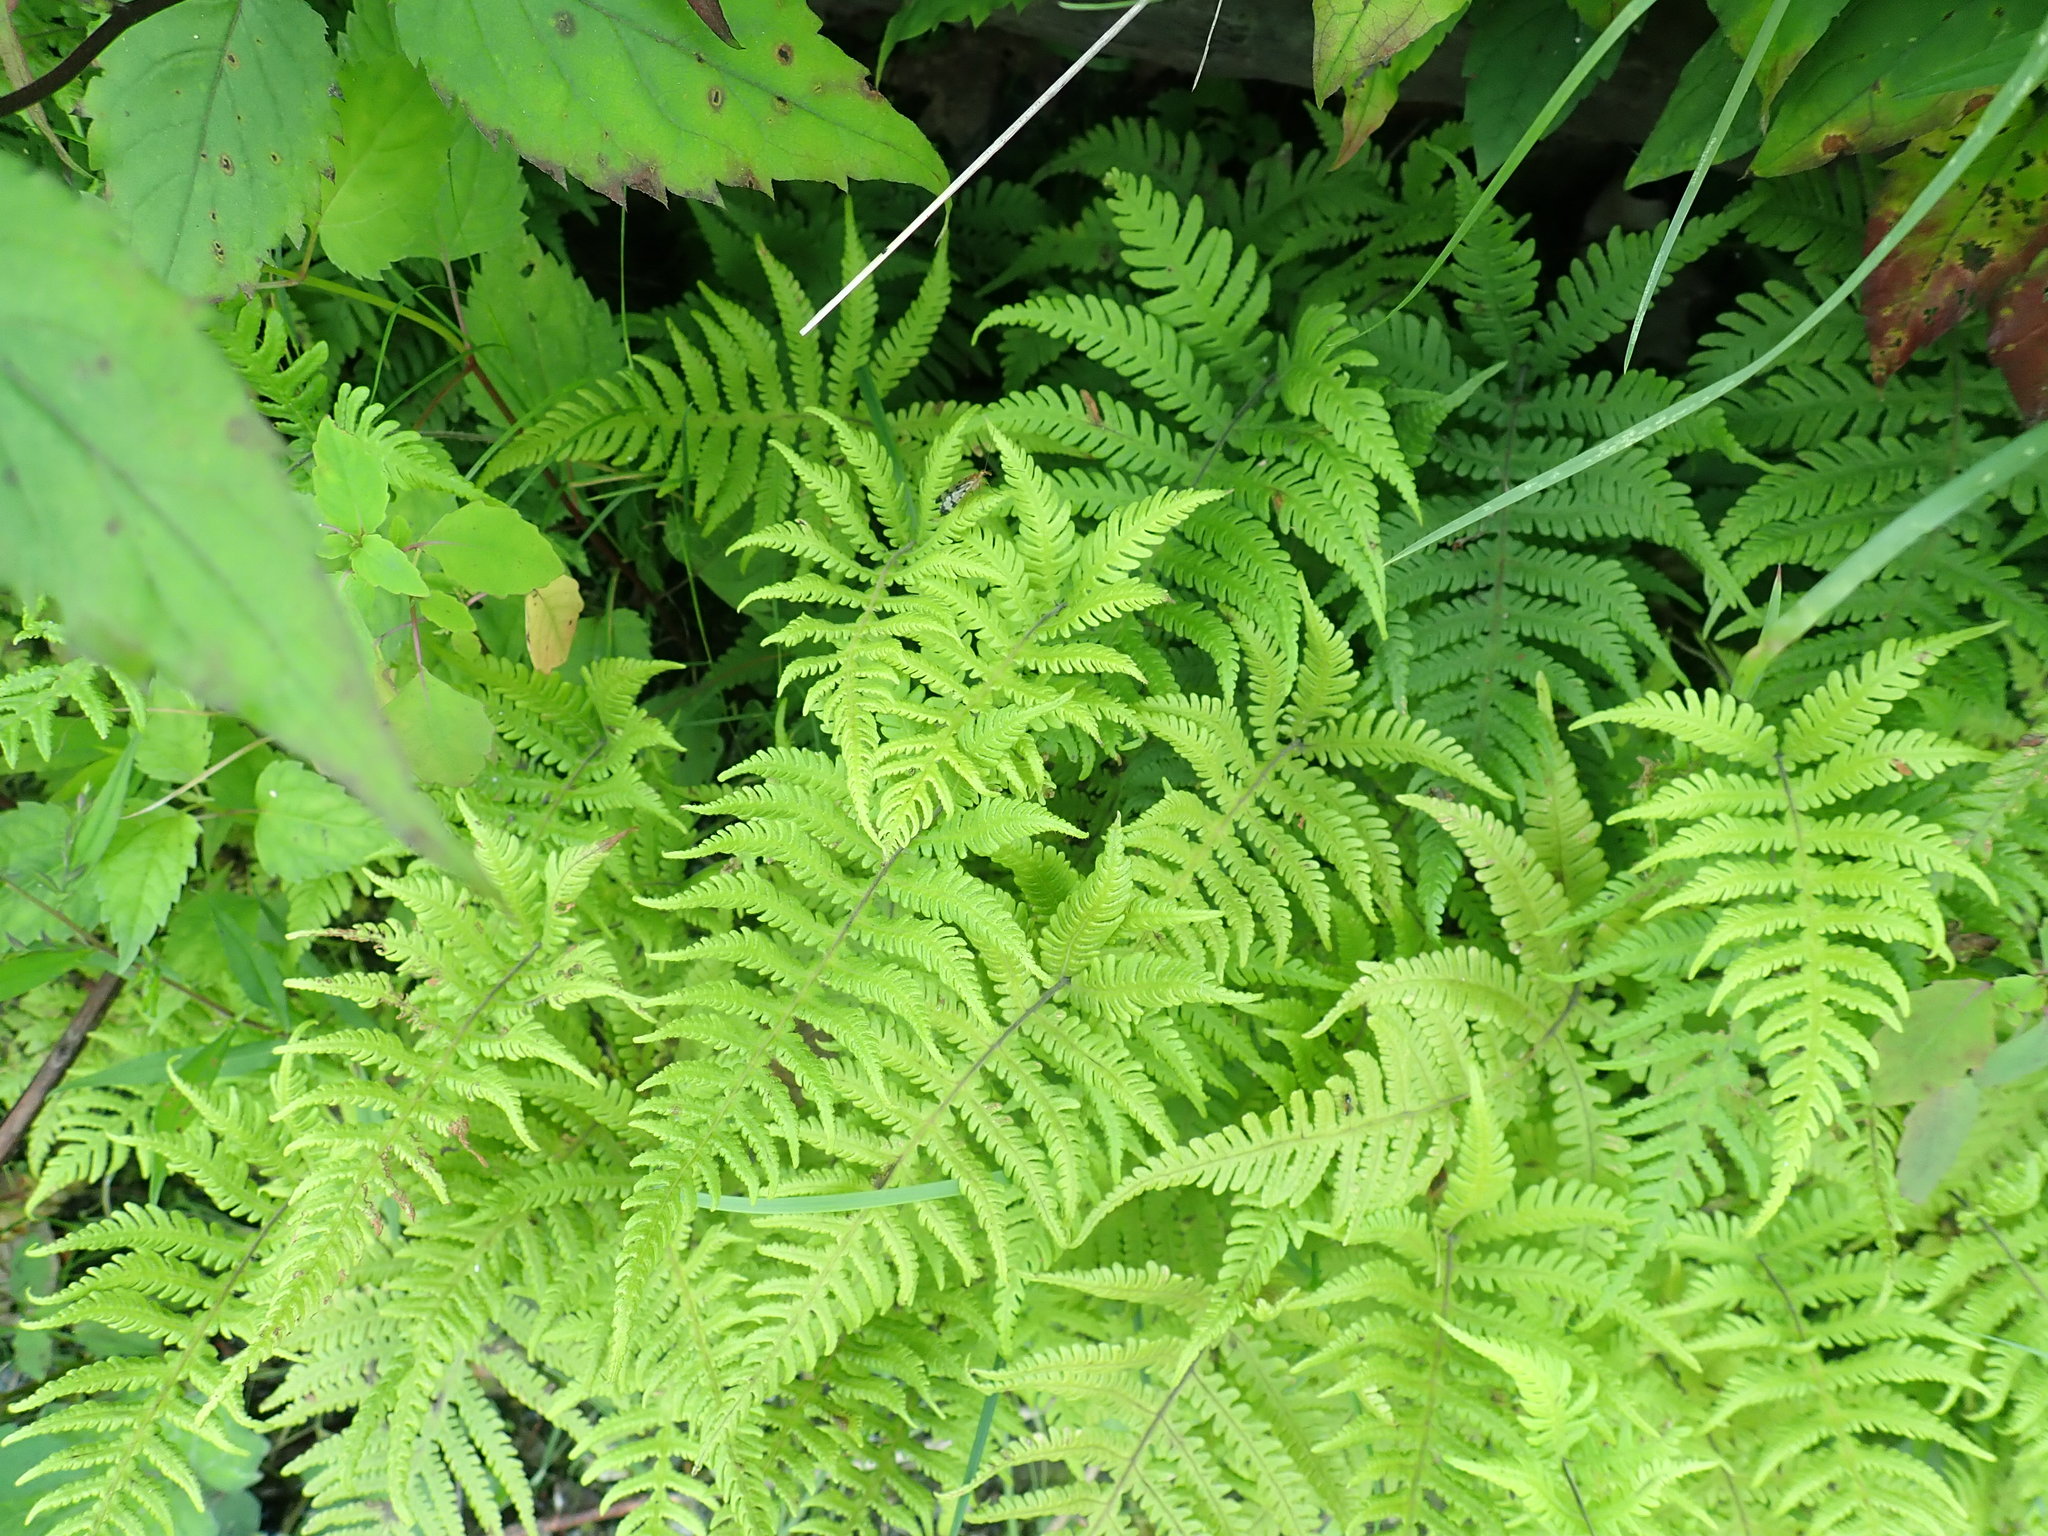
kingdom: Plantae
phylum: Tracheophyta
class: Polypodiopsida
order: Polypodiales
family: Thelypteridaceae
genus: Phegopteris
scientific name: Phegopteris connectilis
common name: Beech fern
